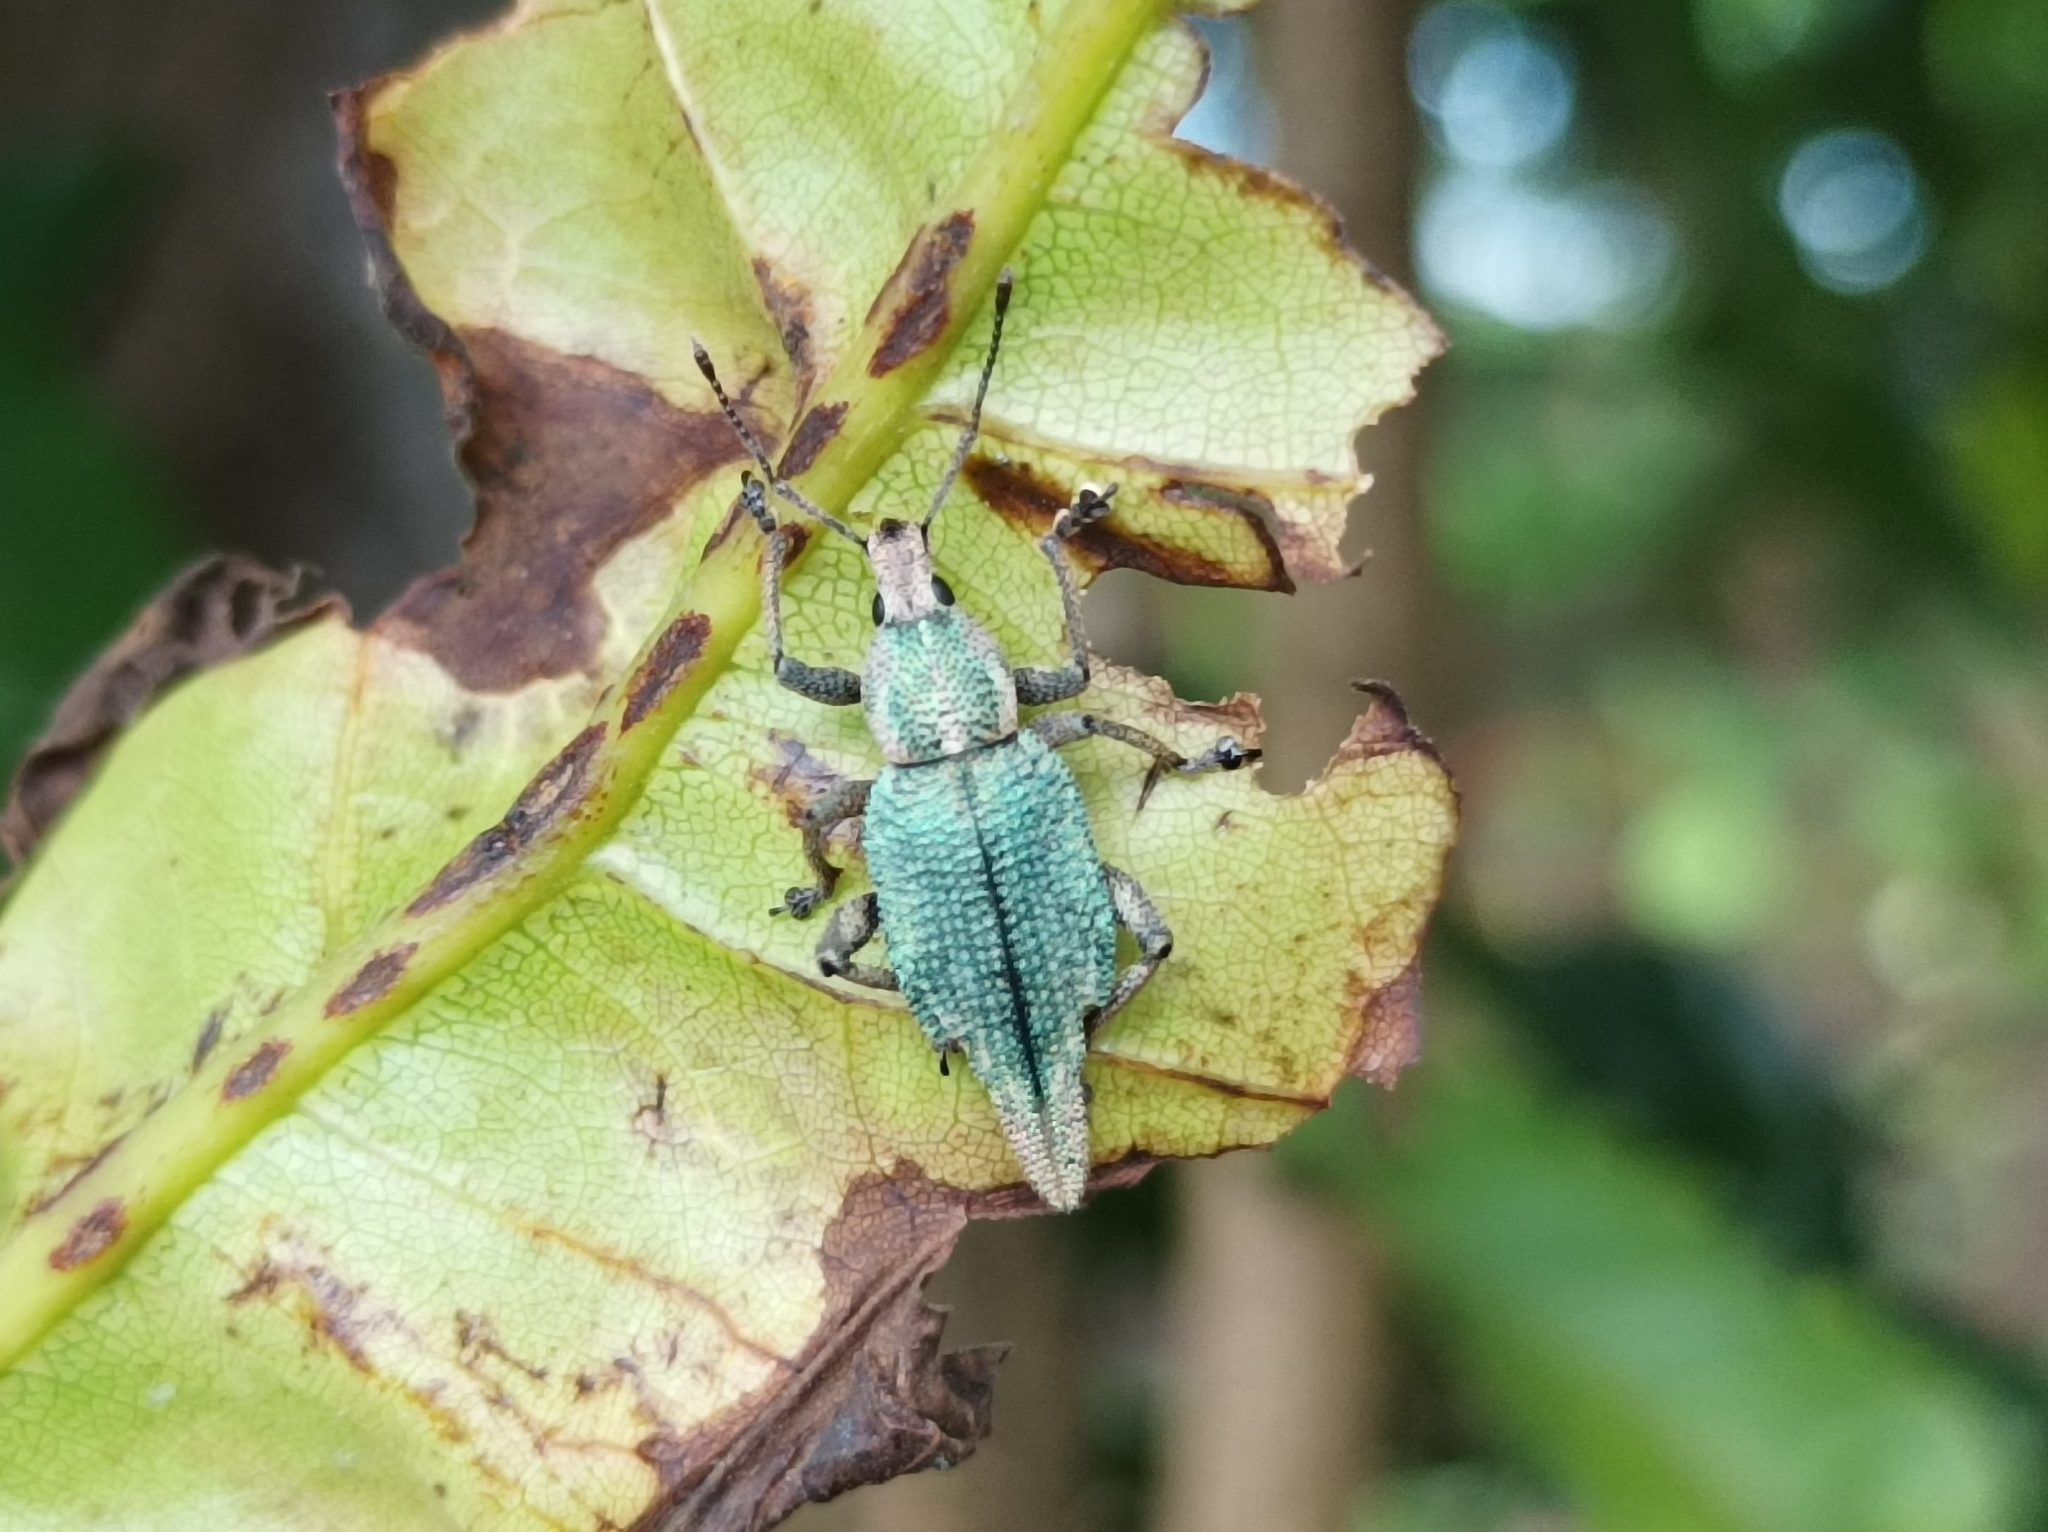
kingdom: Animalia
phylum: Arthropoda
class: Insecta
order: Coleoptera
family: Curculionidae
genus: Elytrurus
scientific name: Elytrurus caudatus
